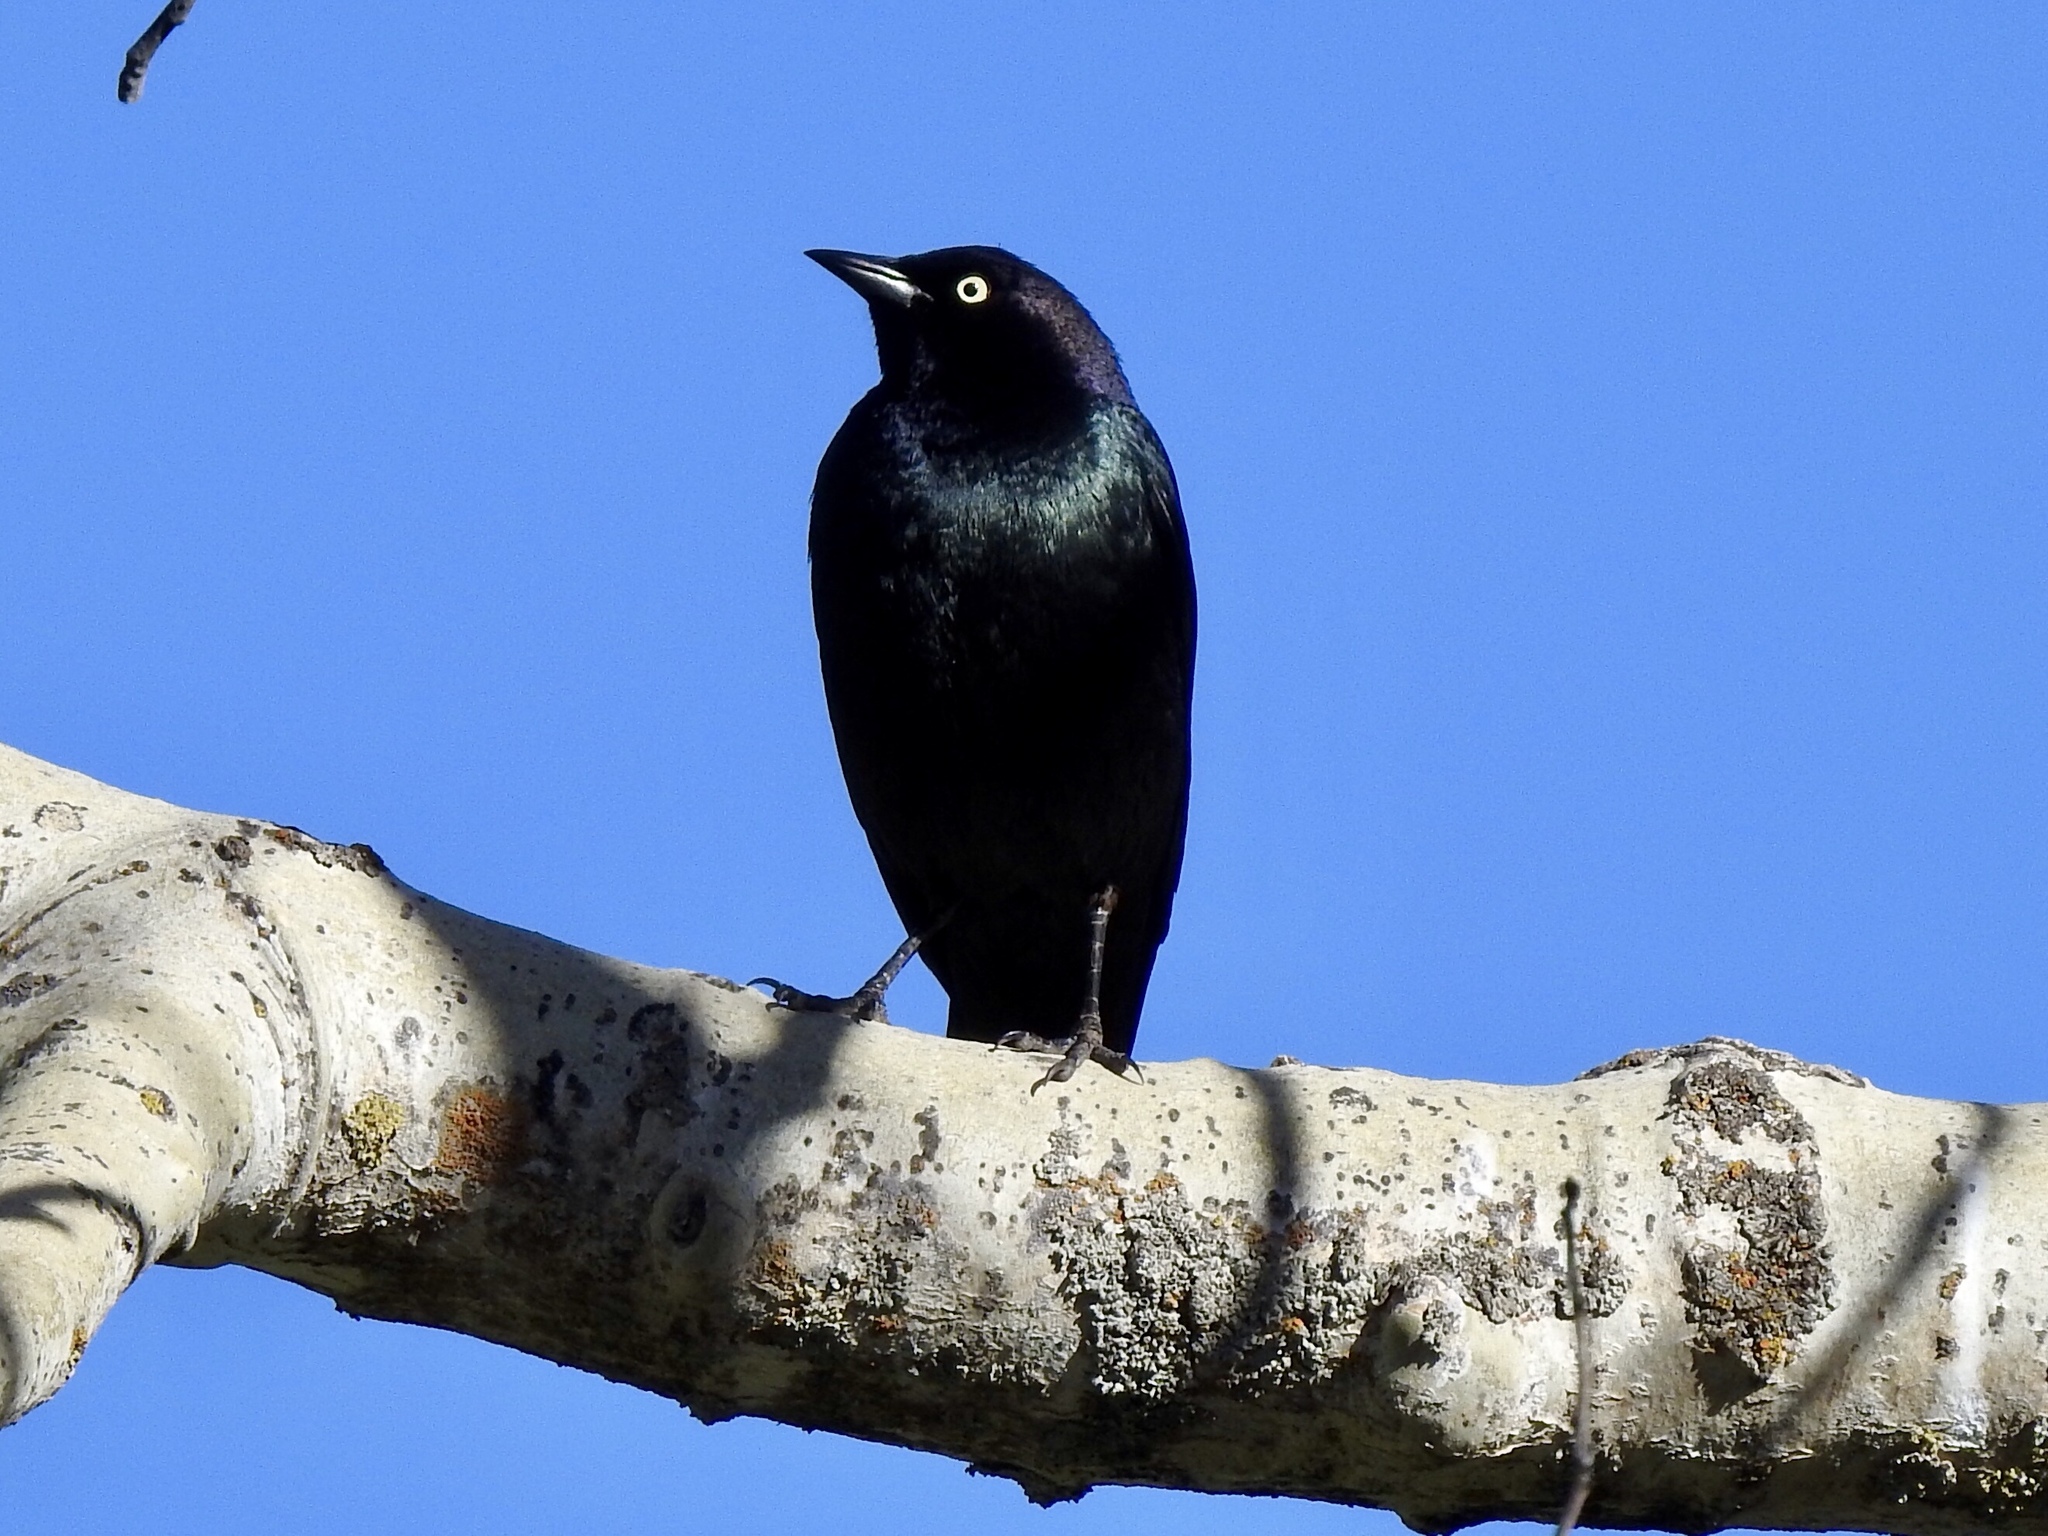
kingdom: Animalia
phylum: Chordata
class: Aves
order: Passeriformes
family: Icteridae
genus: Euphagus
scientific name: Euphagus cyanocephalus
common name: Brewer's blackbird
